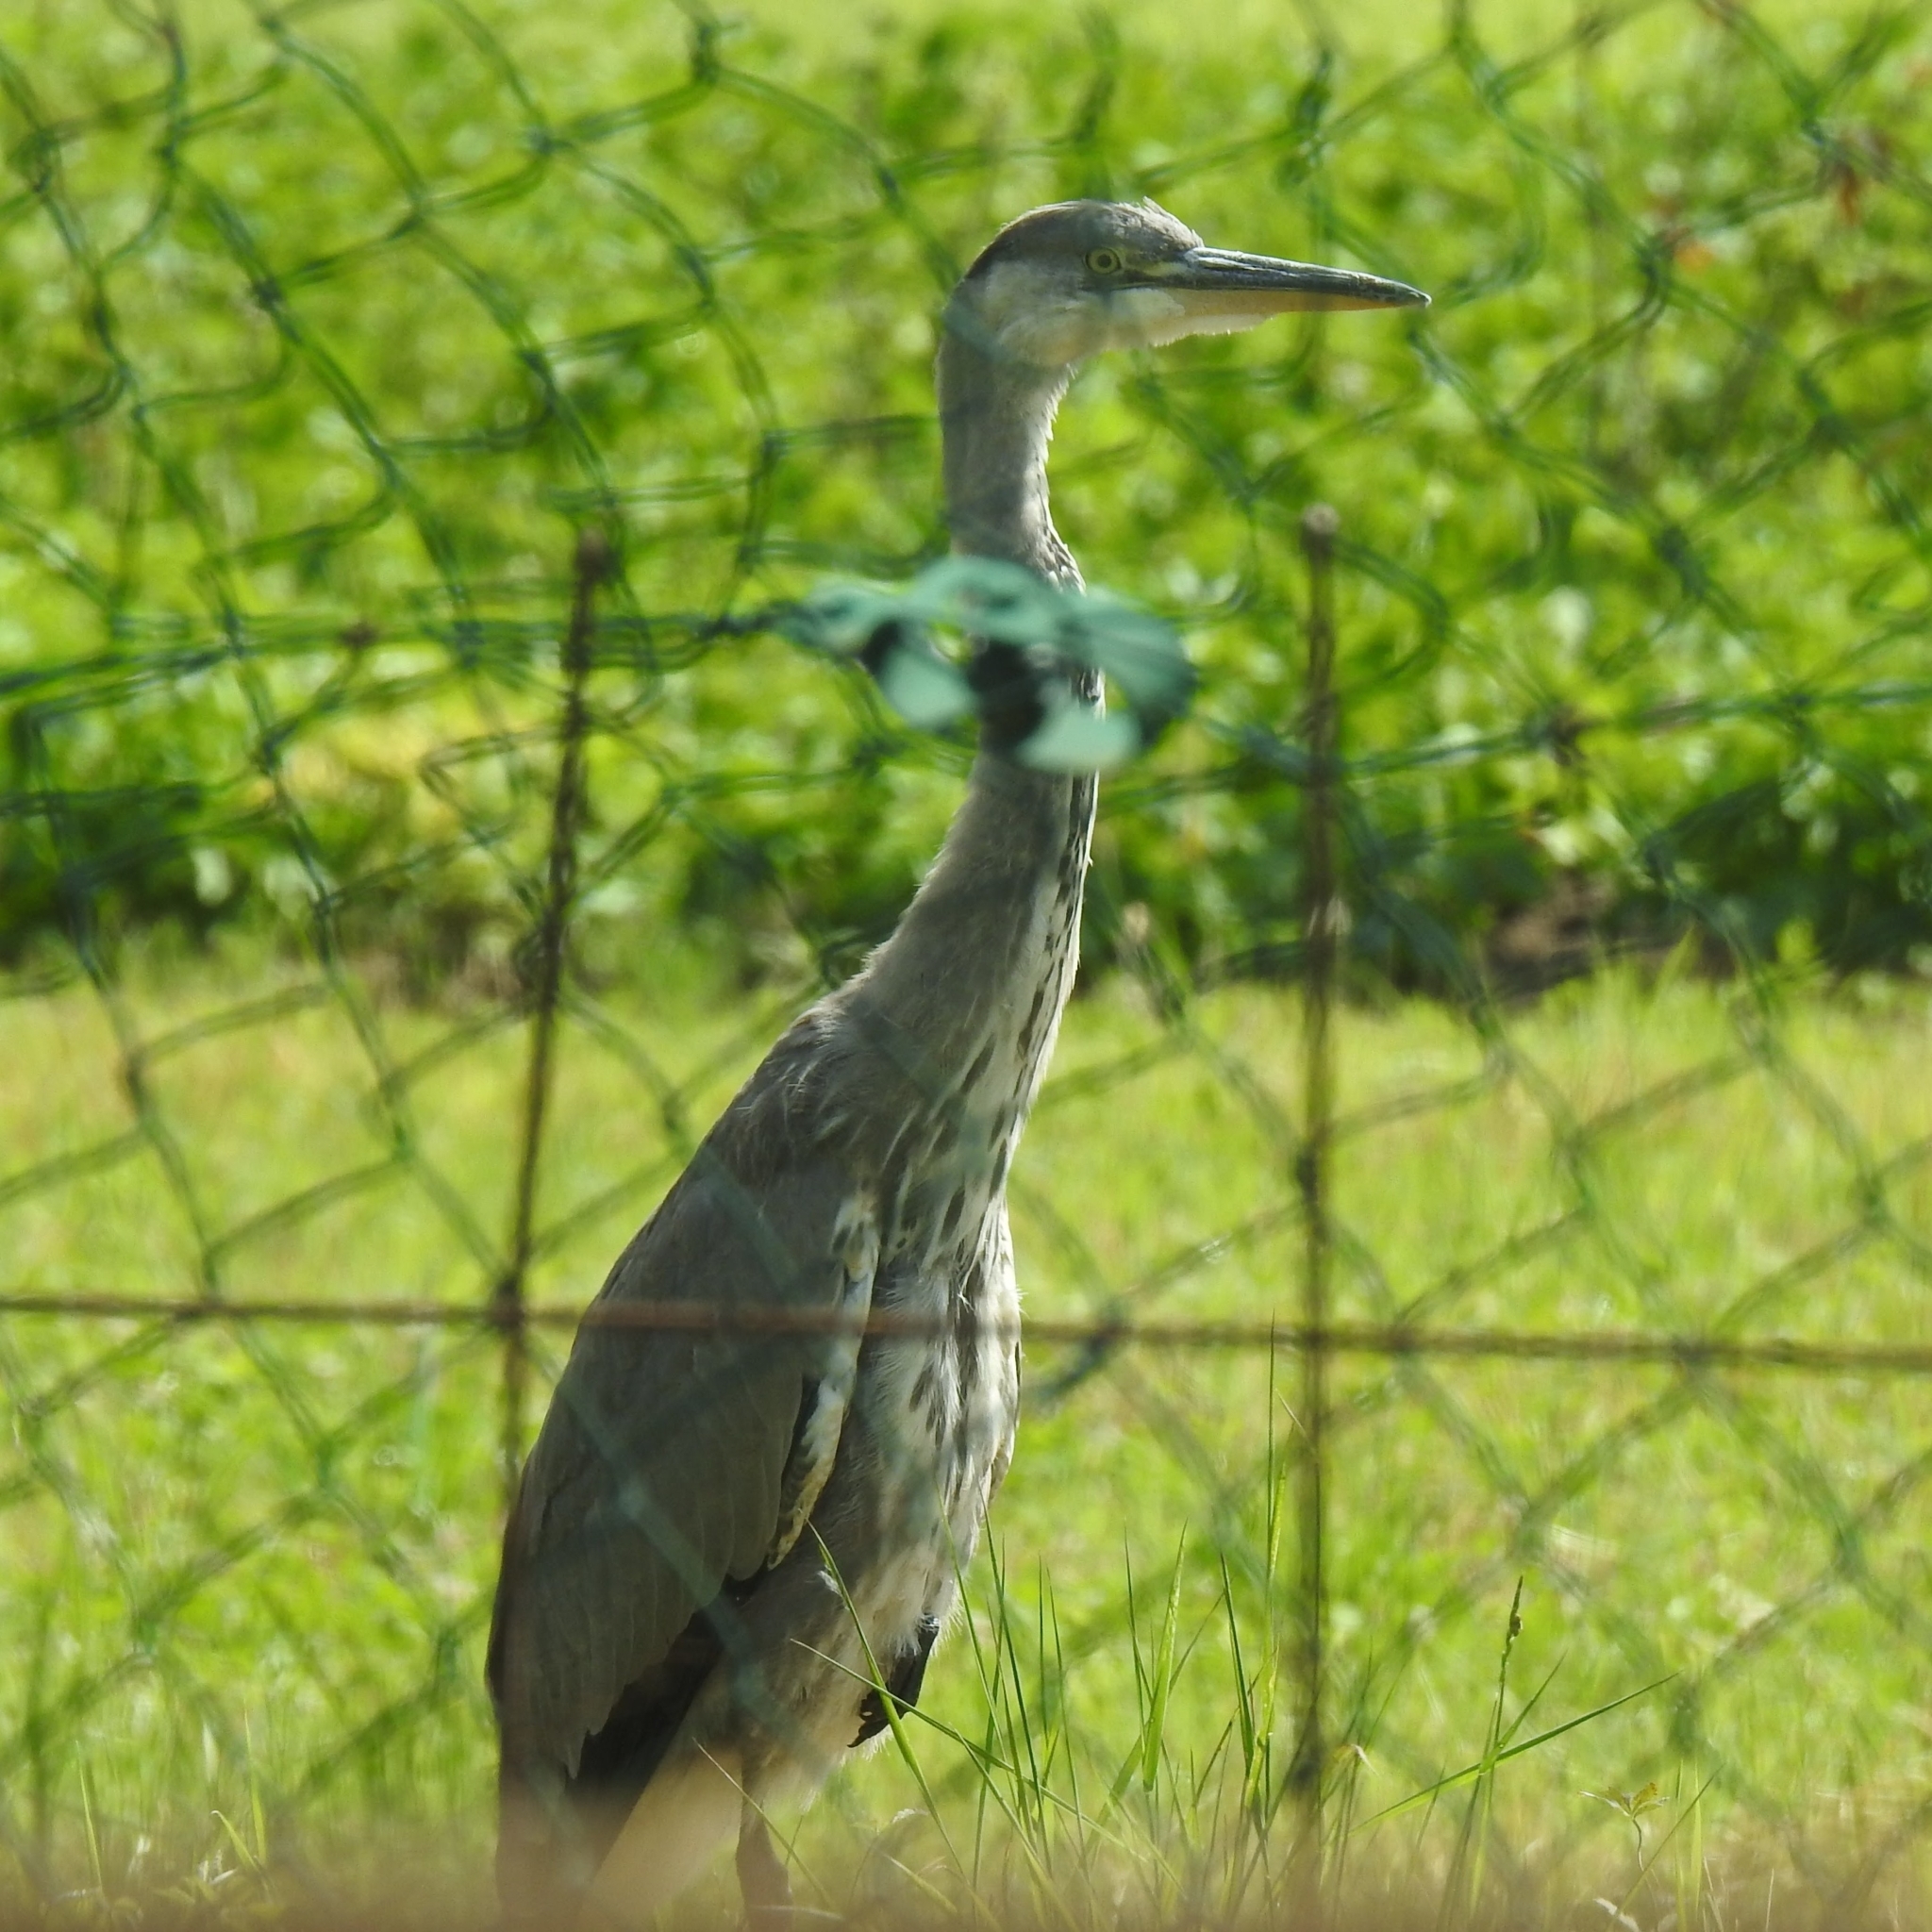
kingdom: Animalia
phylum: Chordata
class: Aves
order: Pelecaniformes
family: Ardeidae
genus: Ardea
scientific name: Ardea cinerea
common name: Grey heron
